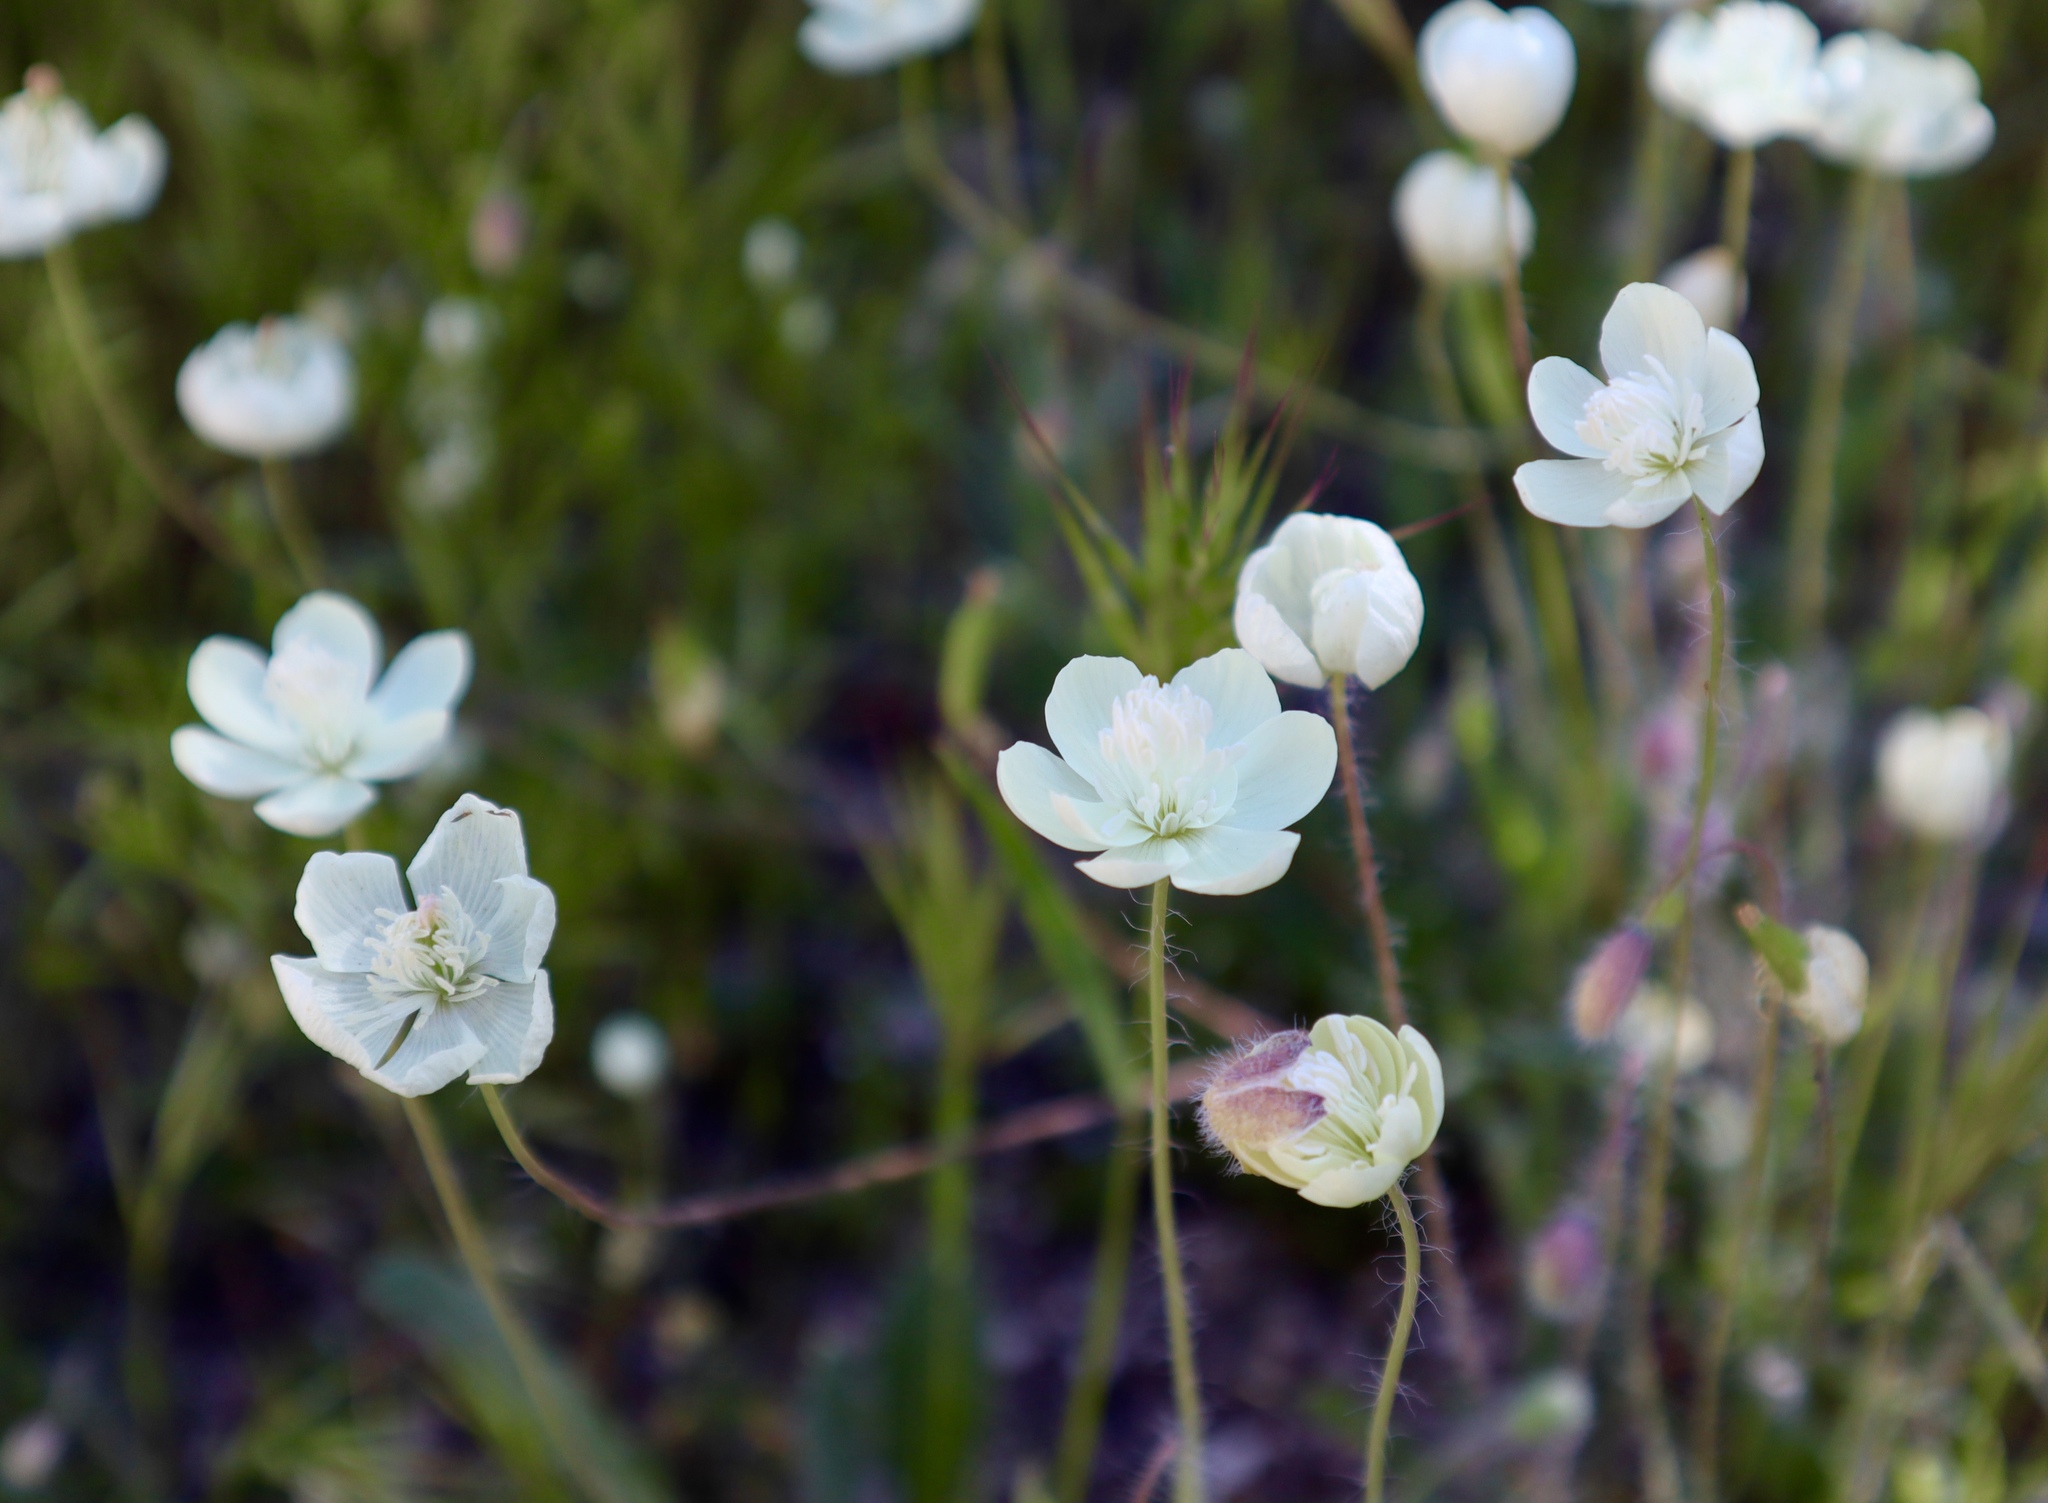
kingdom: Plantae
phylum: Tracheophyta
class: Magnoliopsida
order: Ranunculales
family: Papaveraceae
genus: Platystemon
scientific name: Platystemon californicus
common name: Cream-cups
